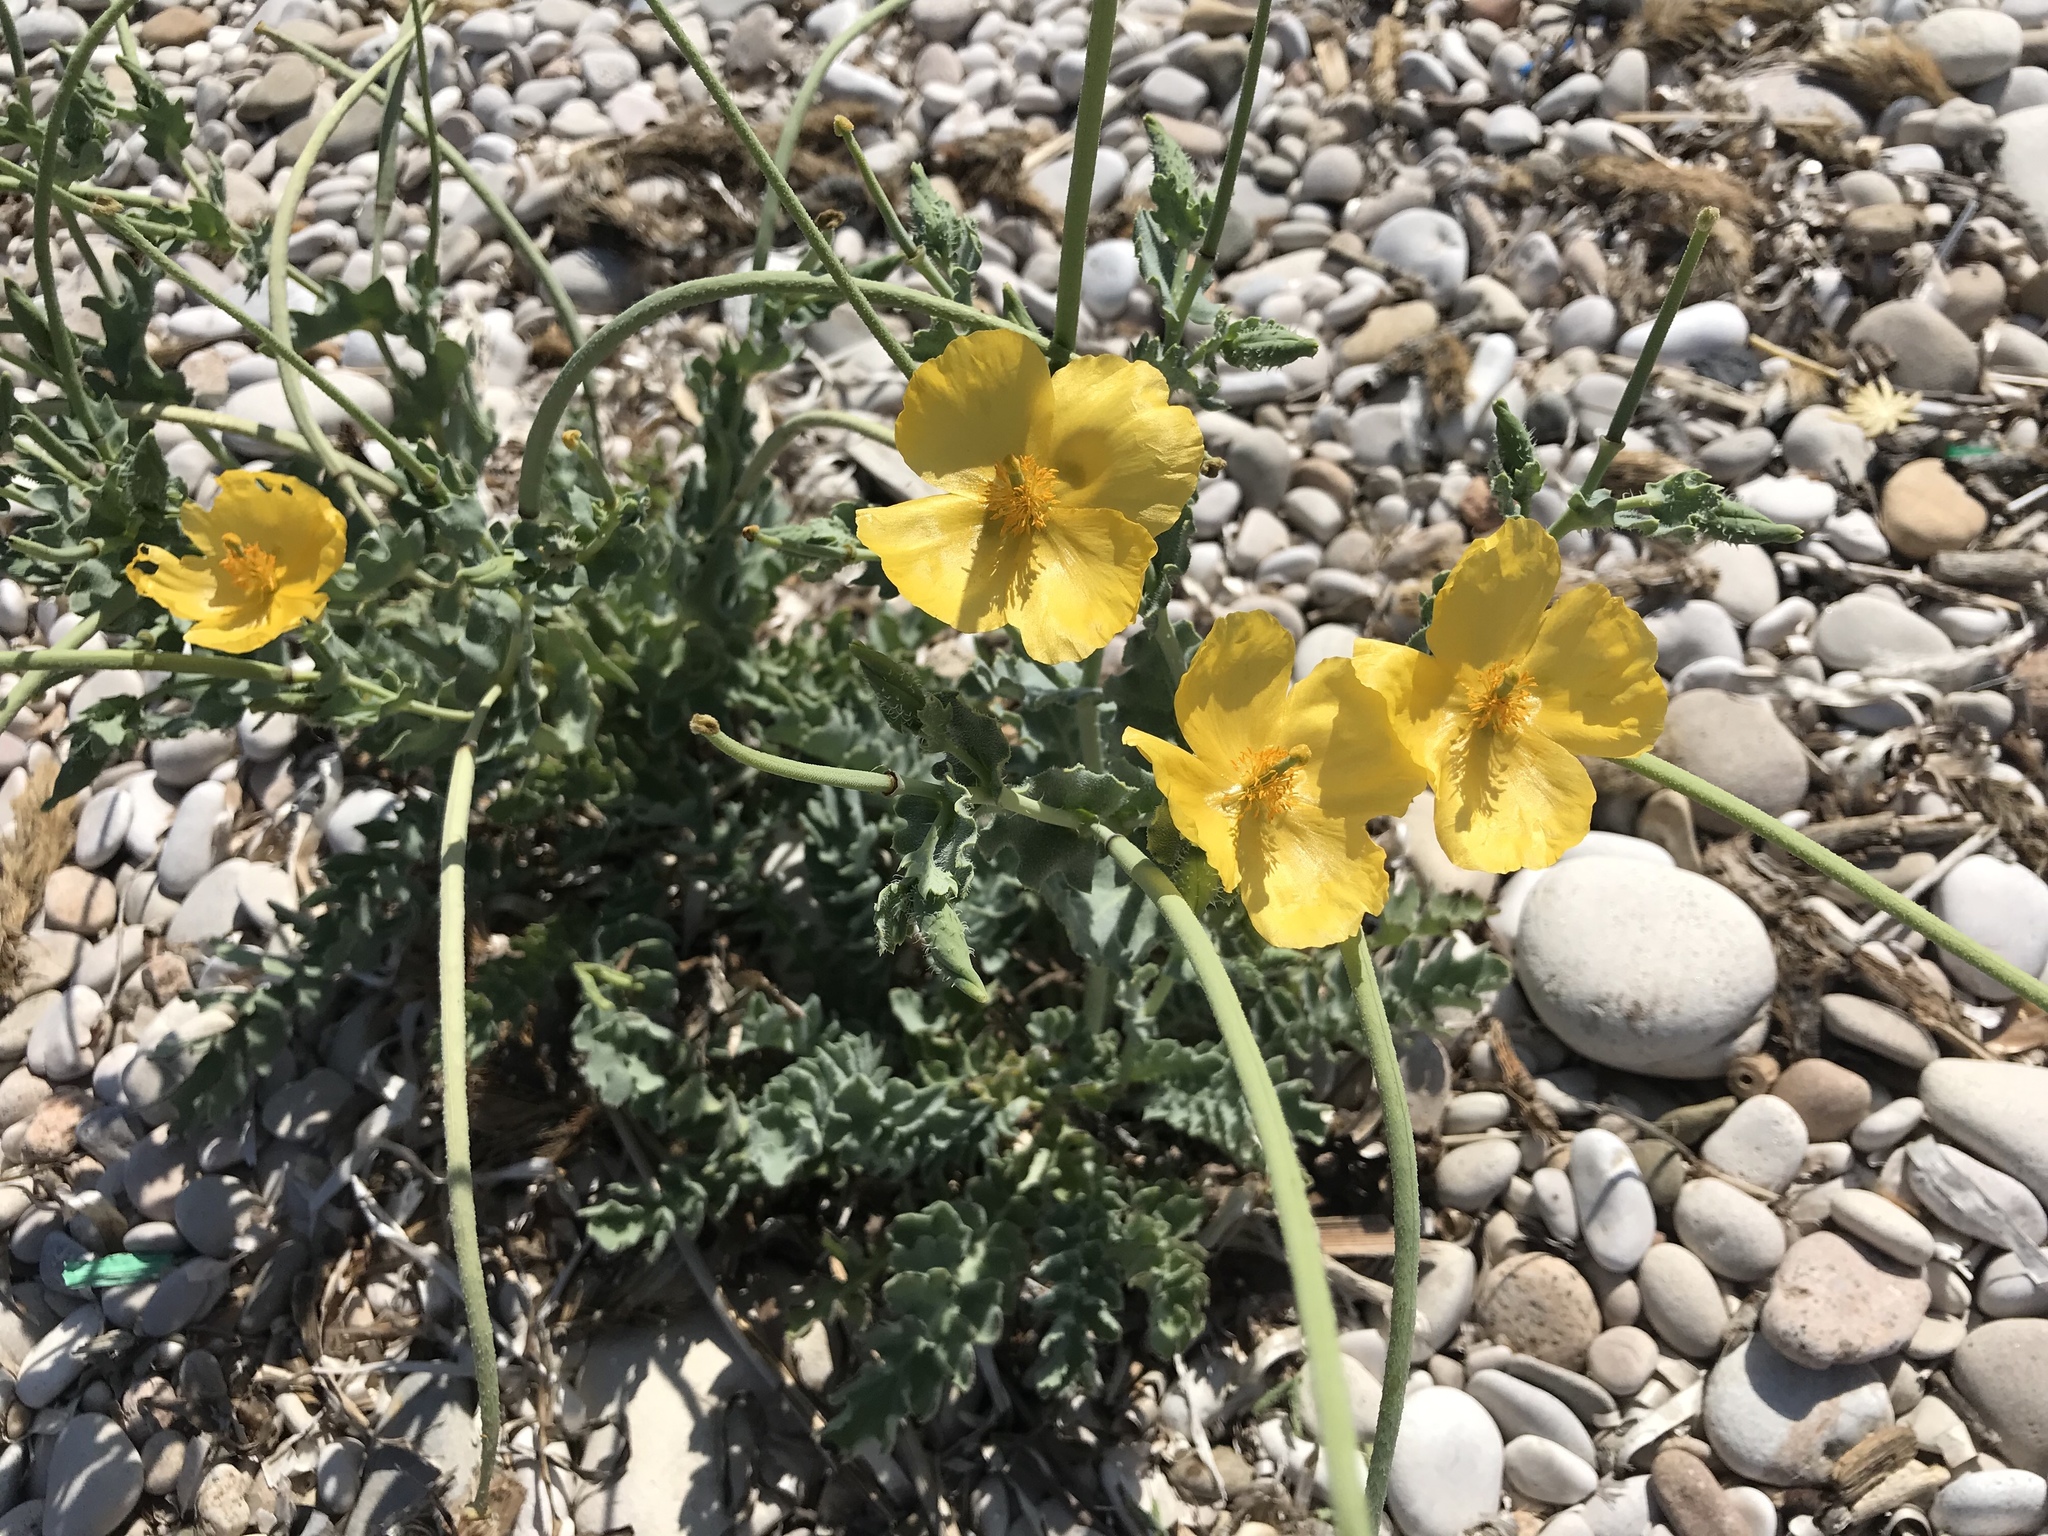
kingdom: Plantae
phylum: Tracheophyta
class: Magnoliopsida
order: Ranunculales
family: Papaveraceae
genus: Glaucium
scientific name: Glaucium flavum
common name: Yellow horned-poppy
